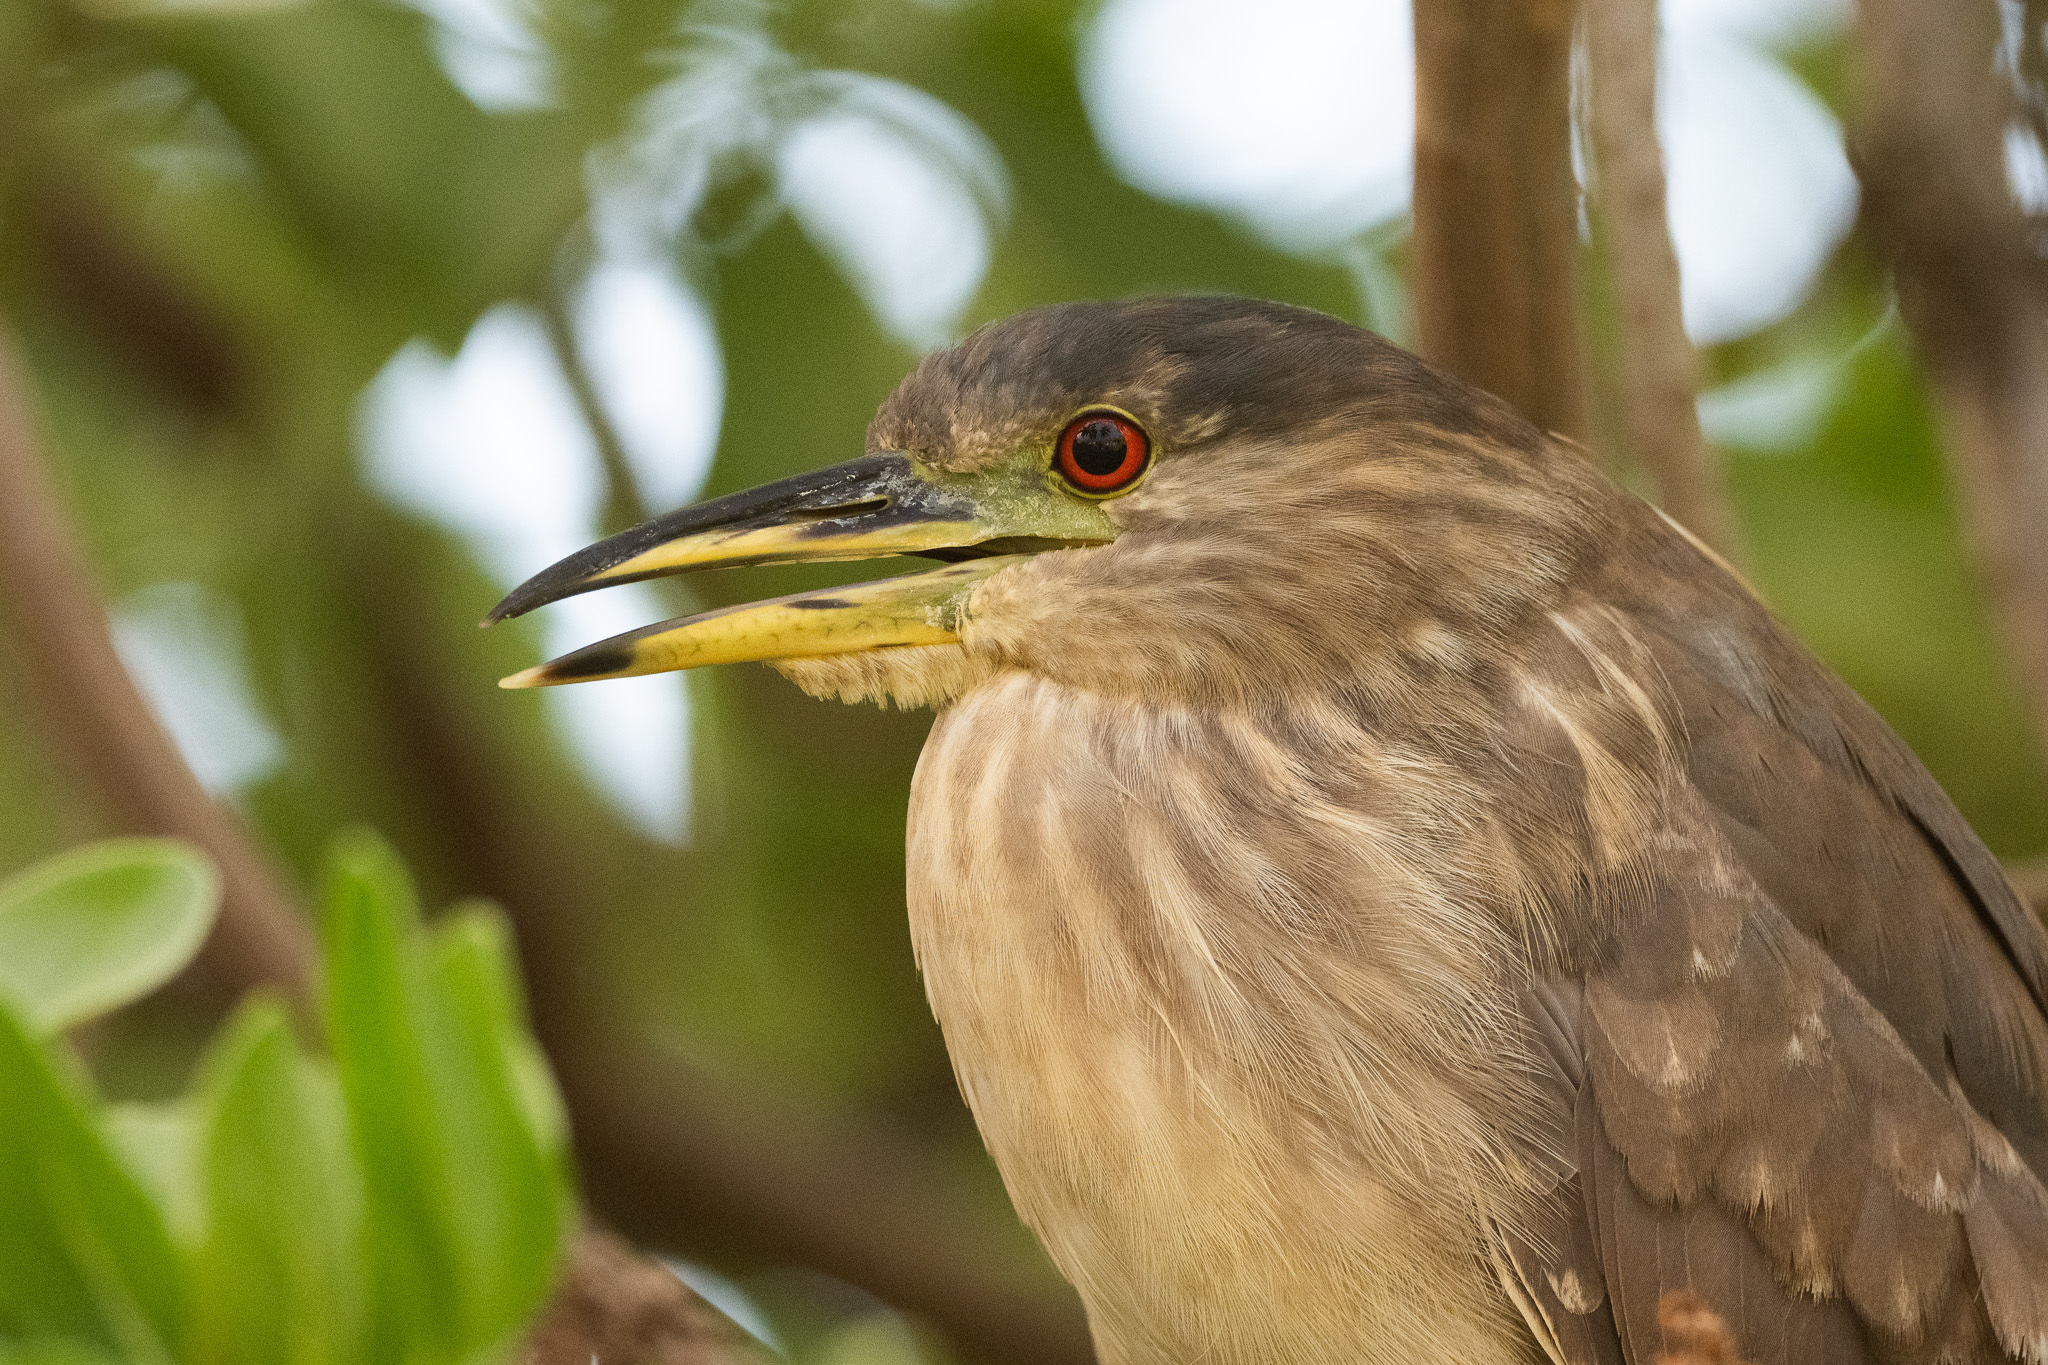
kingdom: Animalia
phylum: Chordata
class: Aves
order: Pelecaniformes
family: Ardeidae
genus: Nycticorax
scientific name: Nycticorax nycticorax
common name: Black-crowned night heron
